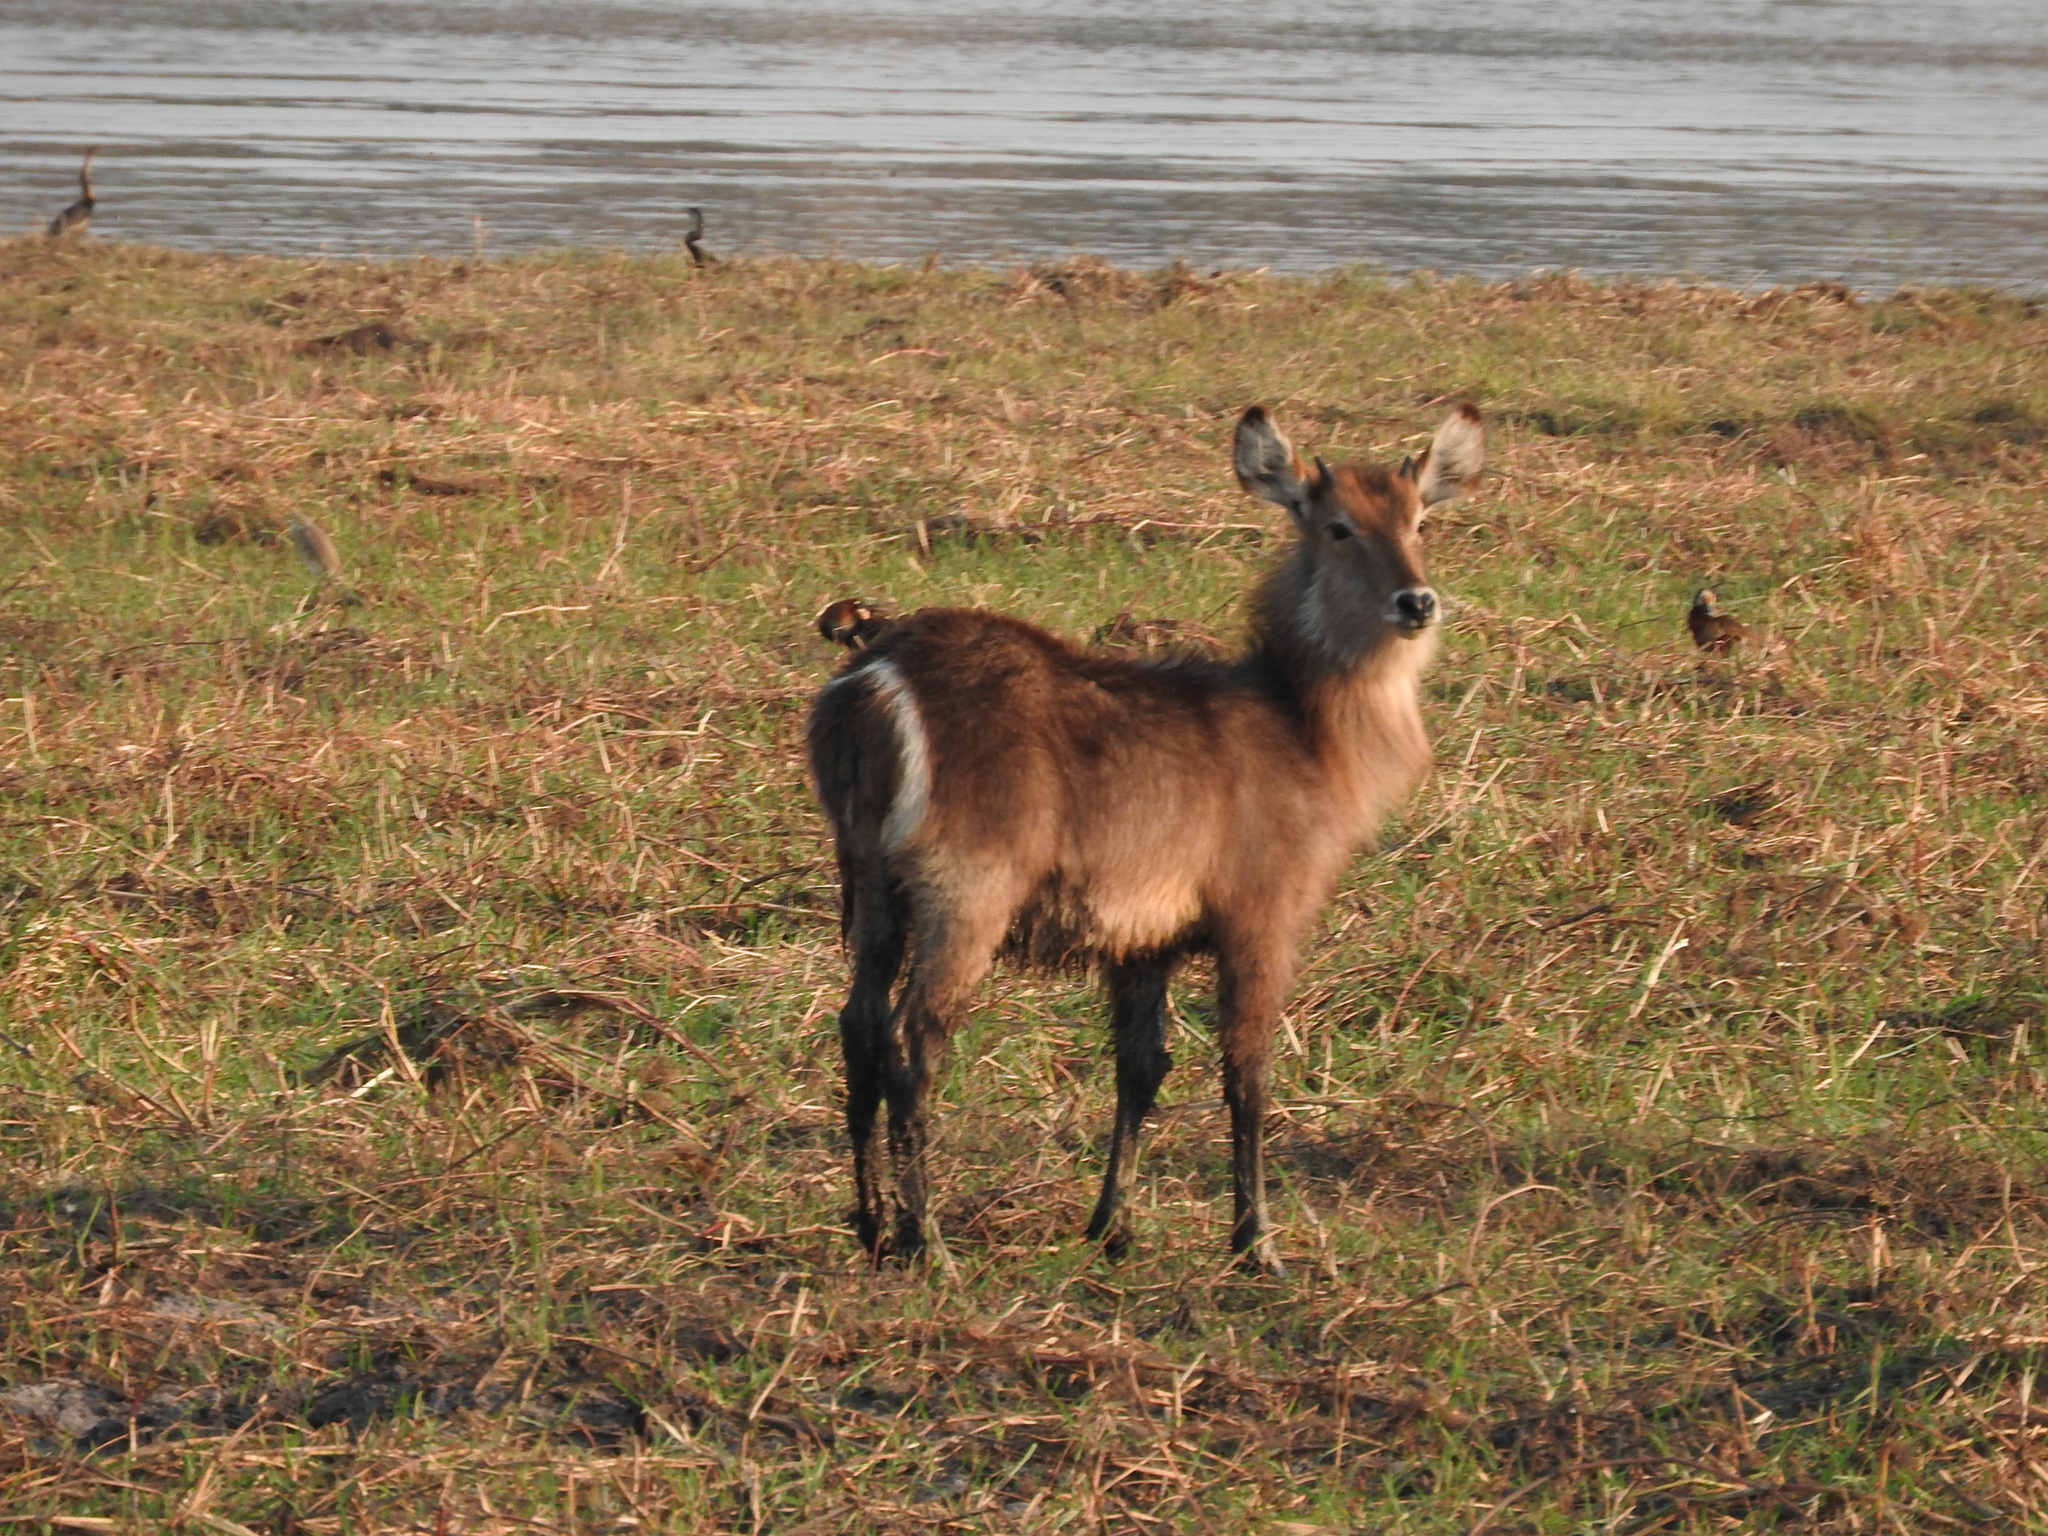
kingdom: Animalia
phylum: Chordata
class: Mammalia
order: Artiodactyla
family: Bovidae
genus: Kobus
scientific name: Kobus ellipsiprymnus
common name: Waterbuck
